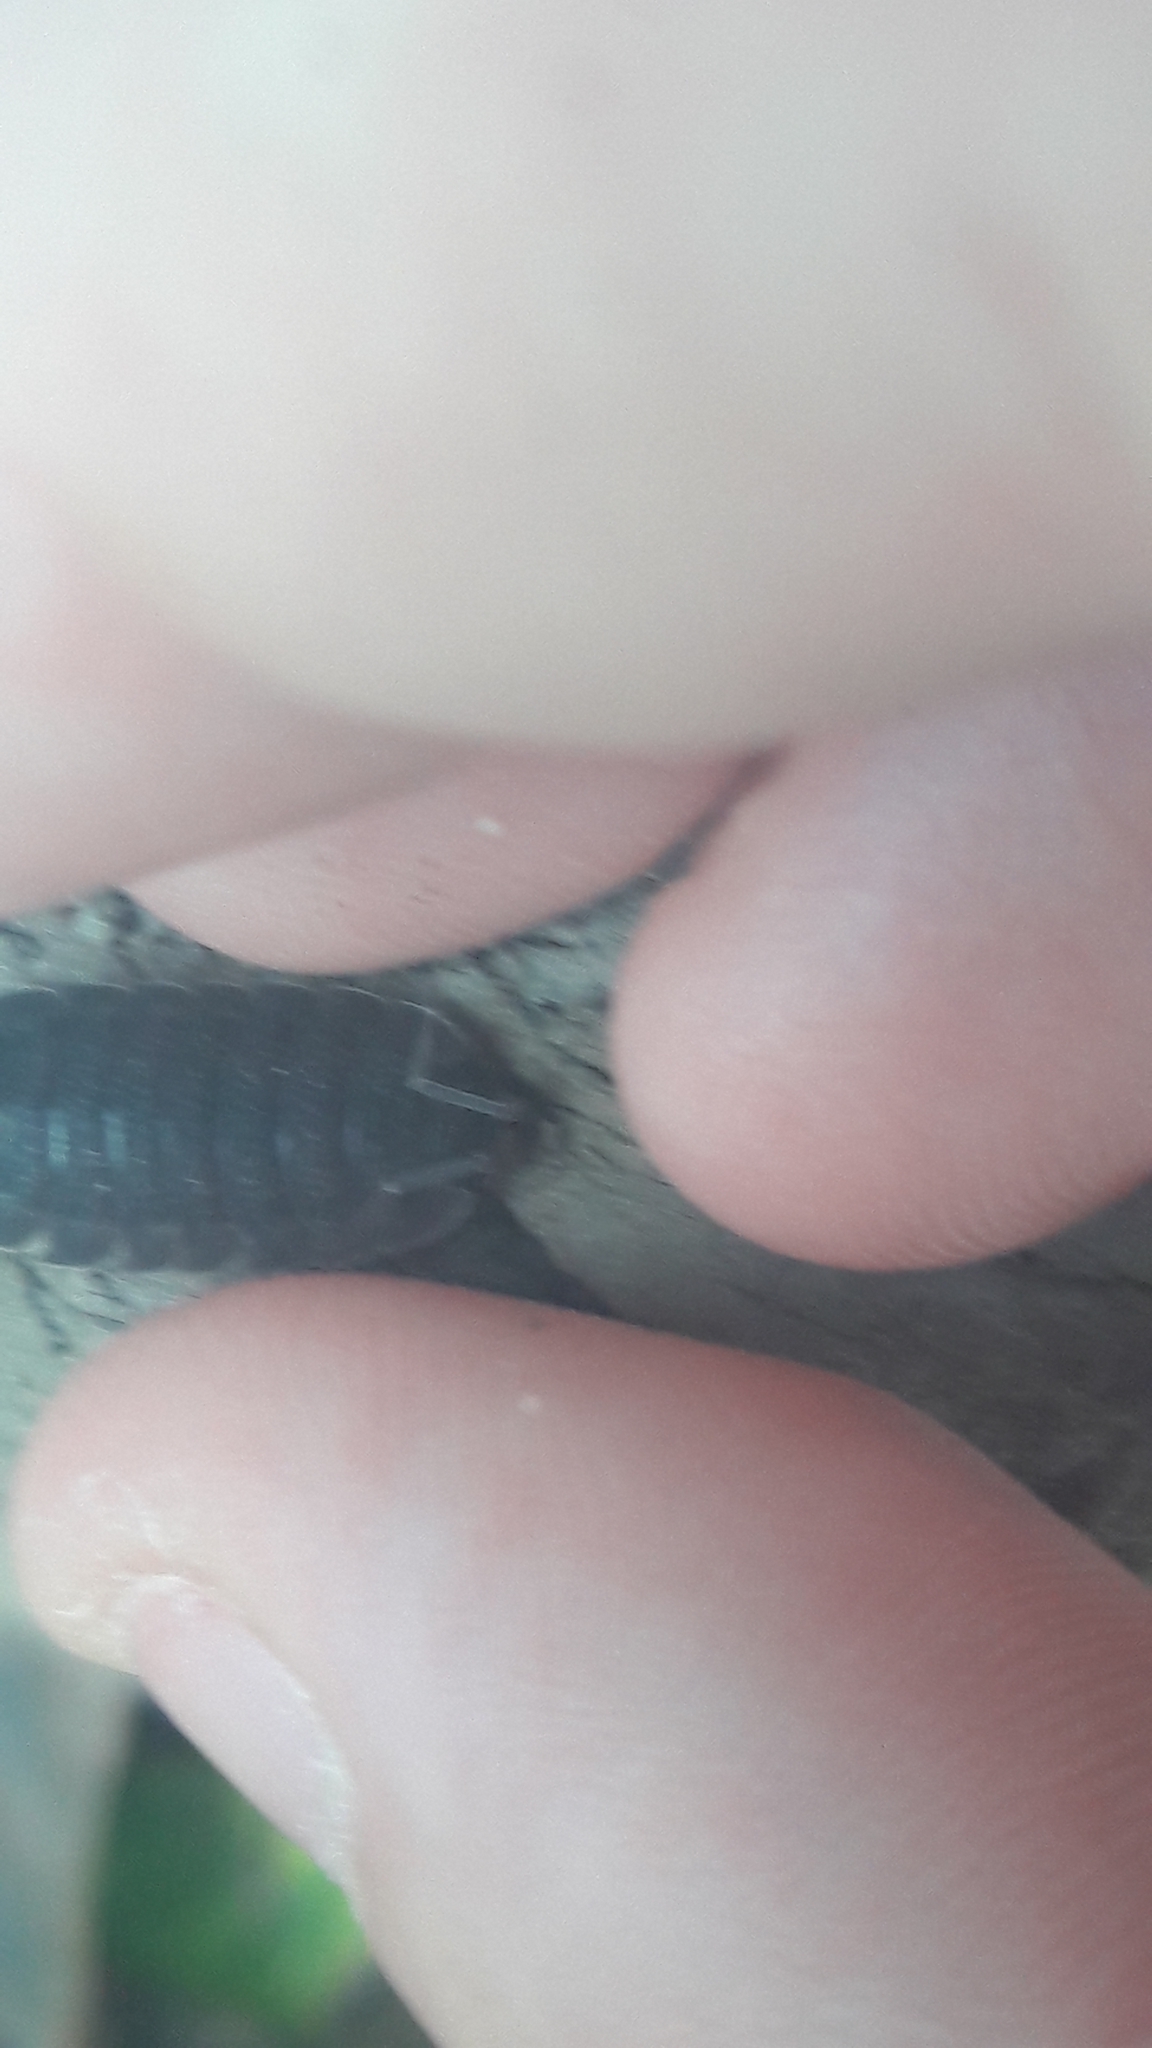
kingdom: Animalia
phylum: Arthropoda
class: Malacostraca
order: Isopoda
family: Porcellionidae
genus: Porcellio
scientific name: Porcellio scaber
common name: Common rough woodlouse
